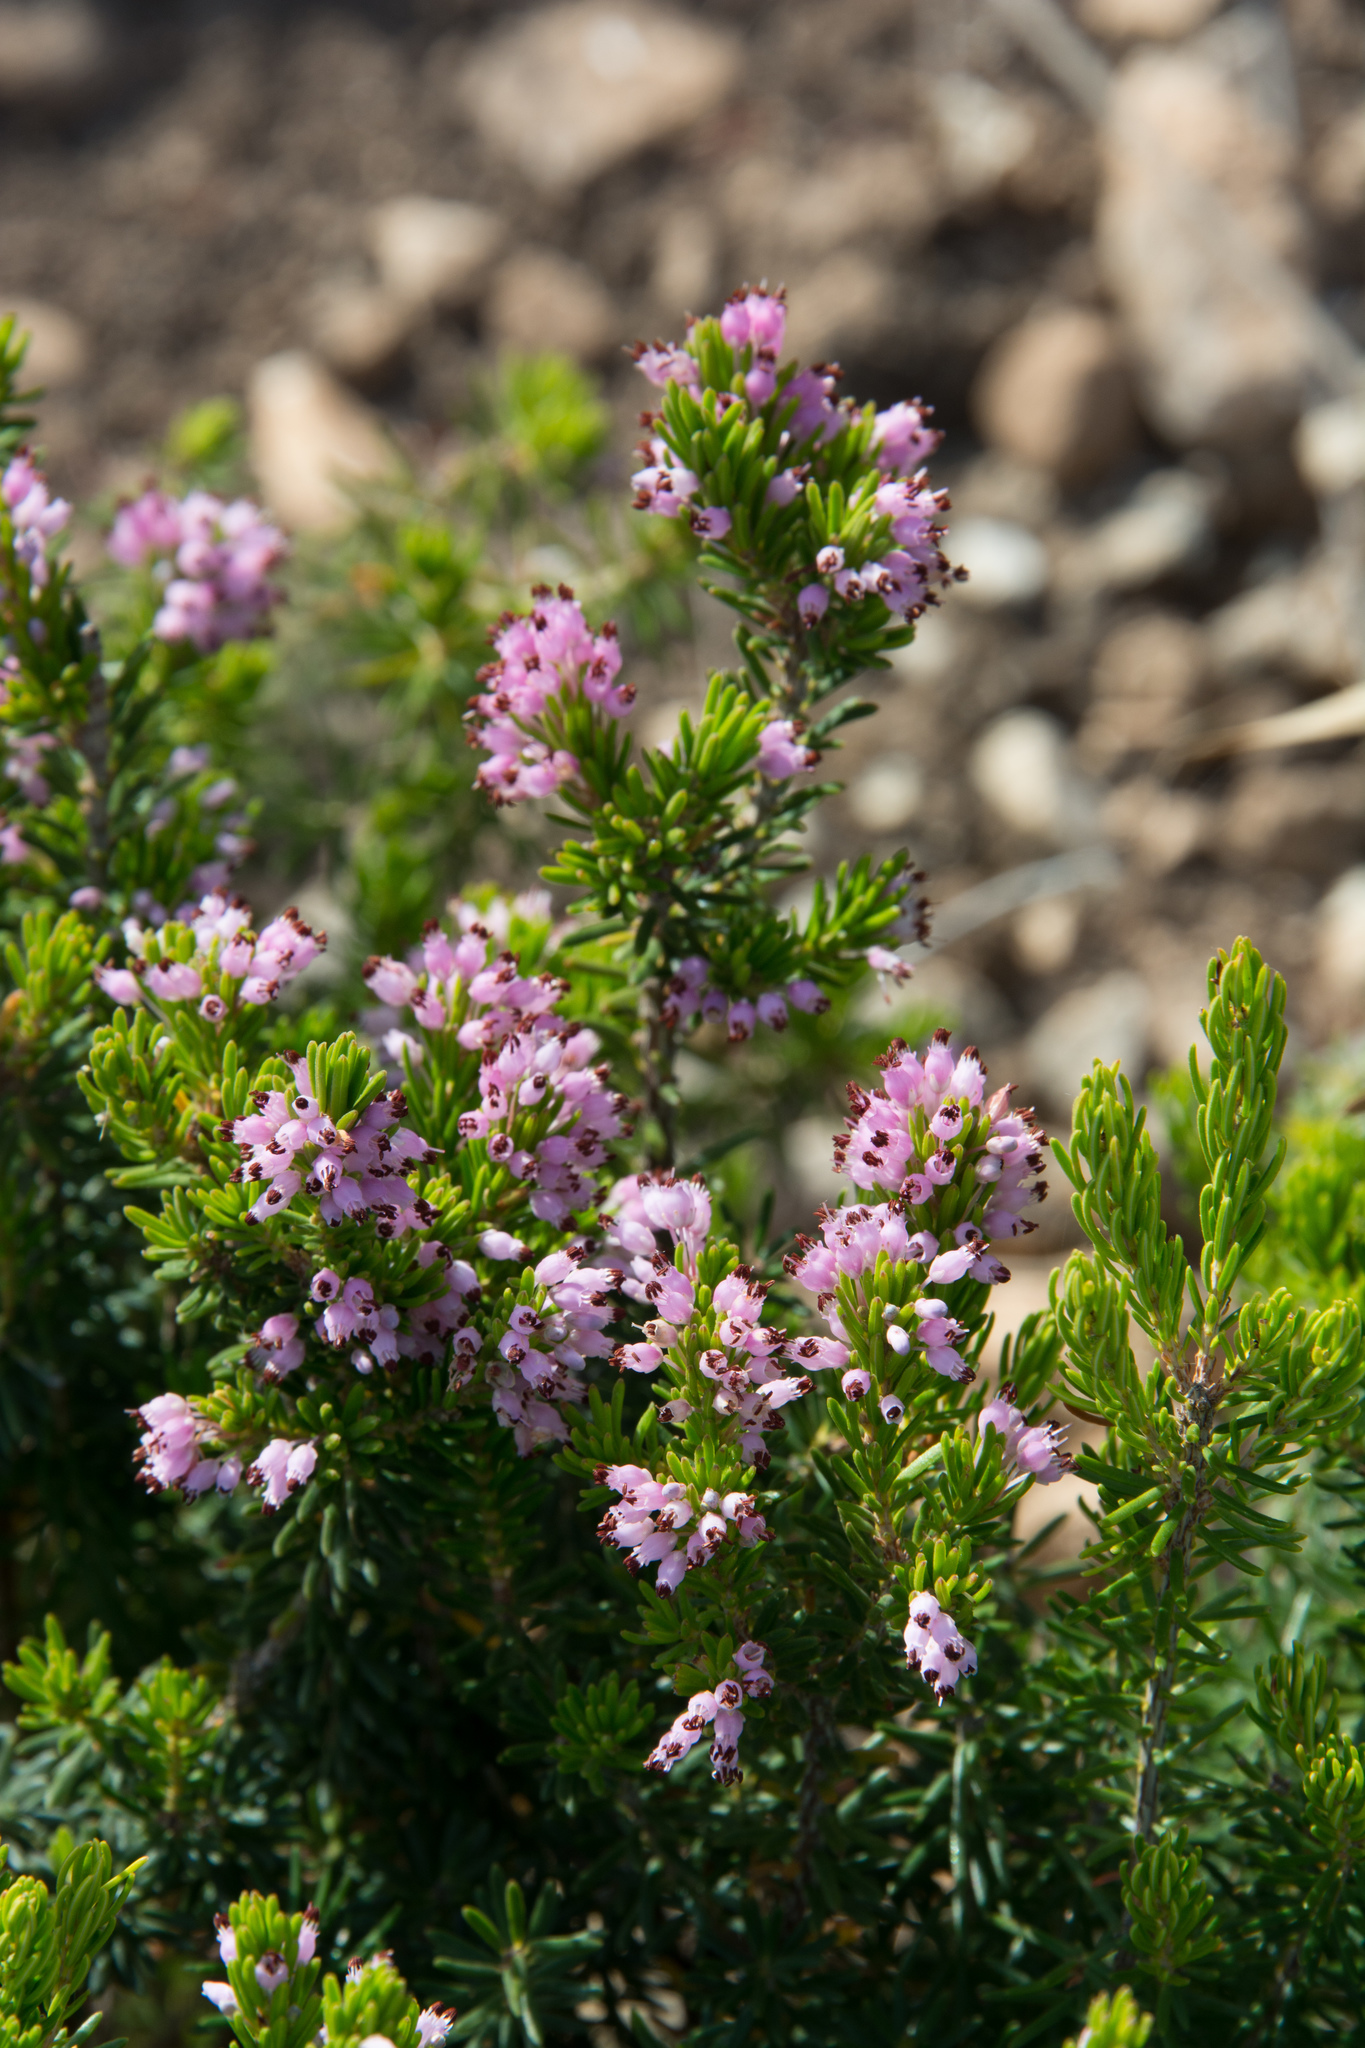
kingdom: Plantae
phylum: Tracheophyta
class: Magnoliopsida
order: Ericales
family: Ericaceae
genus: Erica
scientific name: Erica multiflora
